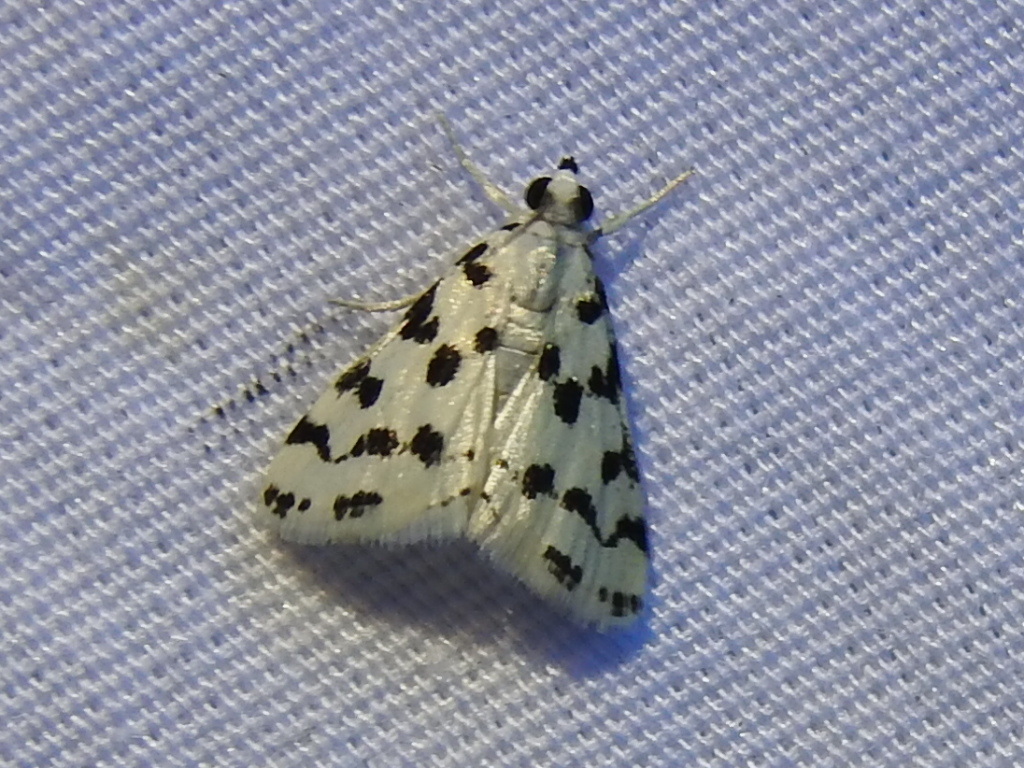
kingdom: Animalia
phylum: Arthropoda
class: Insecta
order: Lepidoptera
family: Crambidae
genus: Eustixia
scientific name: Eustixia pupula
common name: American cabbage pearl
